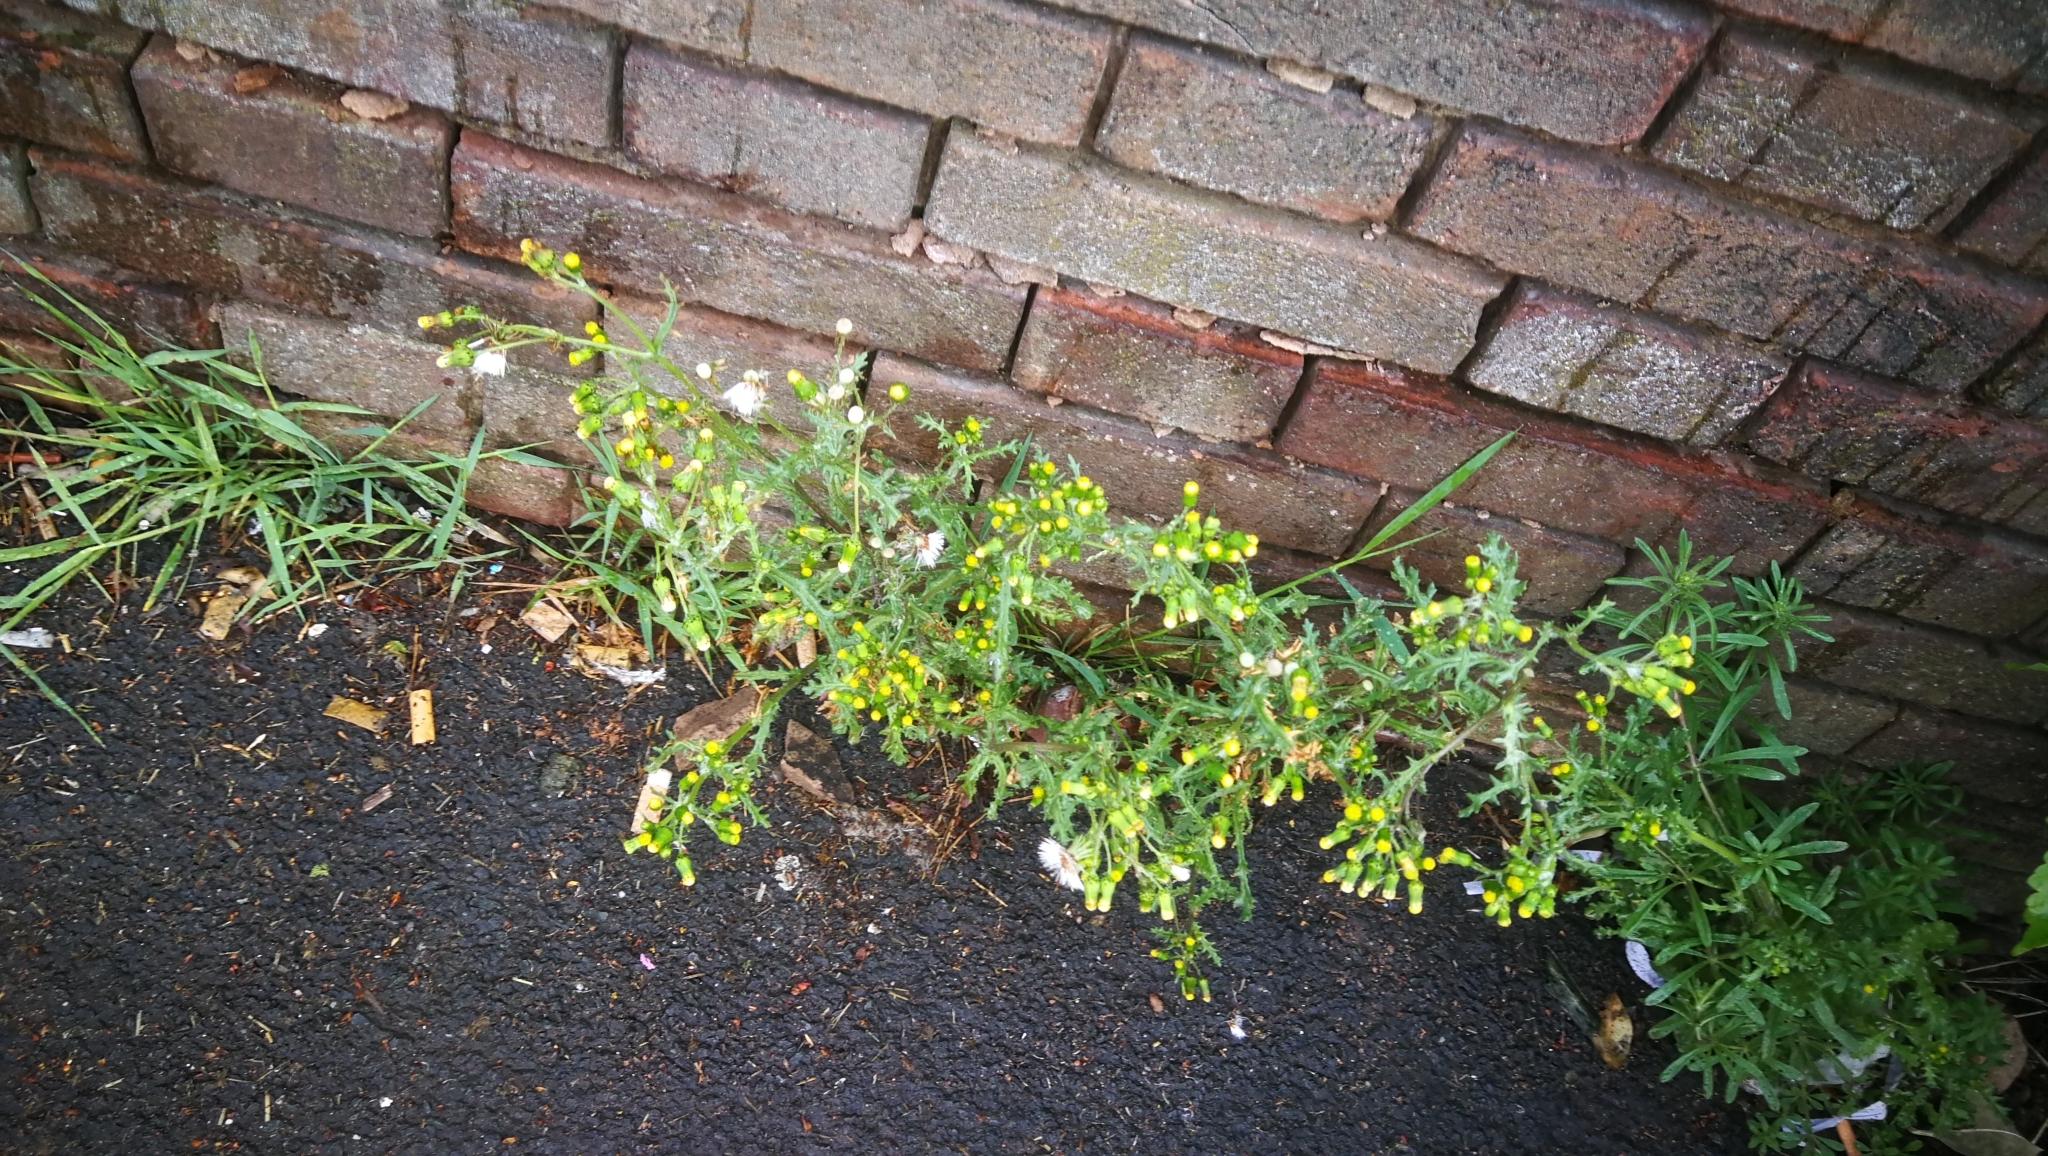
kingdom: Plantae
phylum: Tracheophyta
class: Magnoliopsida
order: Asterales
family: Asteraceae
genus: Senecio
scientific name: Senecio vulgaris
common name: Old-man-in-the-spring
